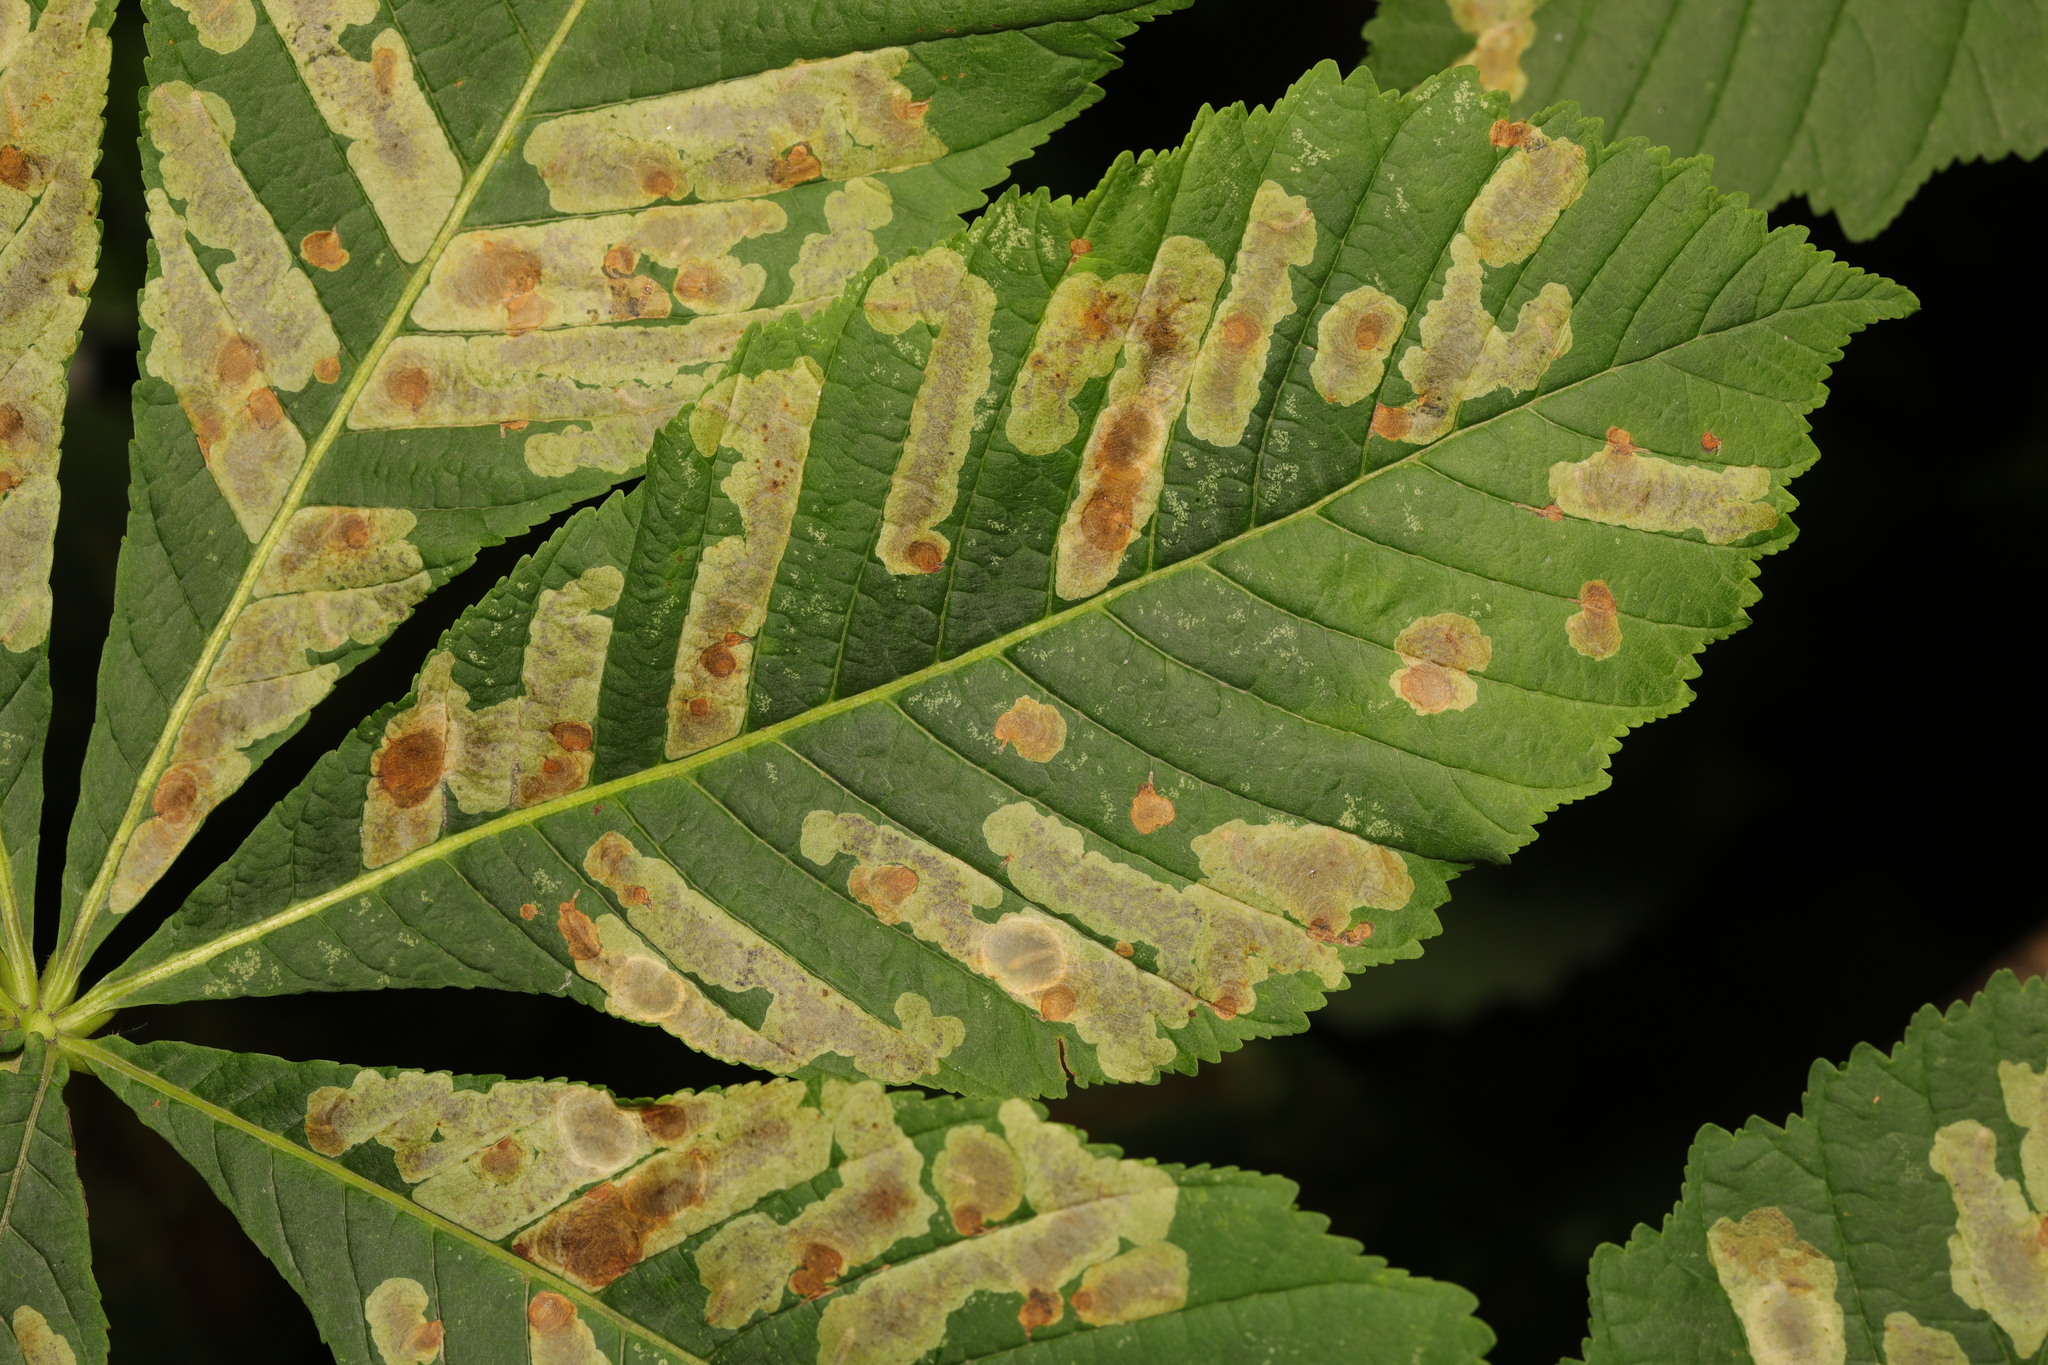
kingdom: Animalia
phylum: Arthropoda
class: Insecta
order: Lepidoptera
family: Gracillariidae
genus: Cameraria
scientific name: Cameraria ohridella
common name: Horse-chestnut leaf-miner
